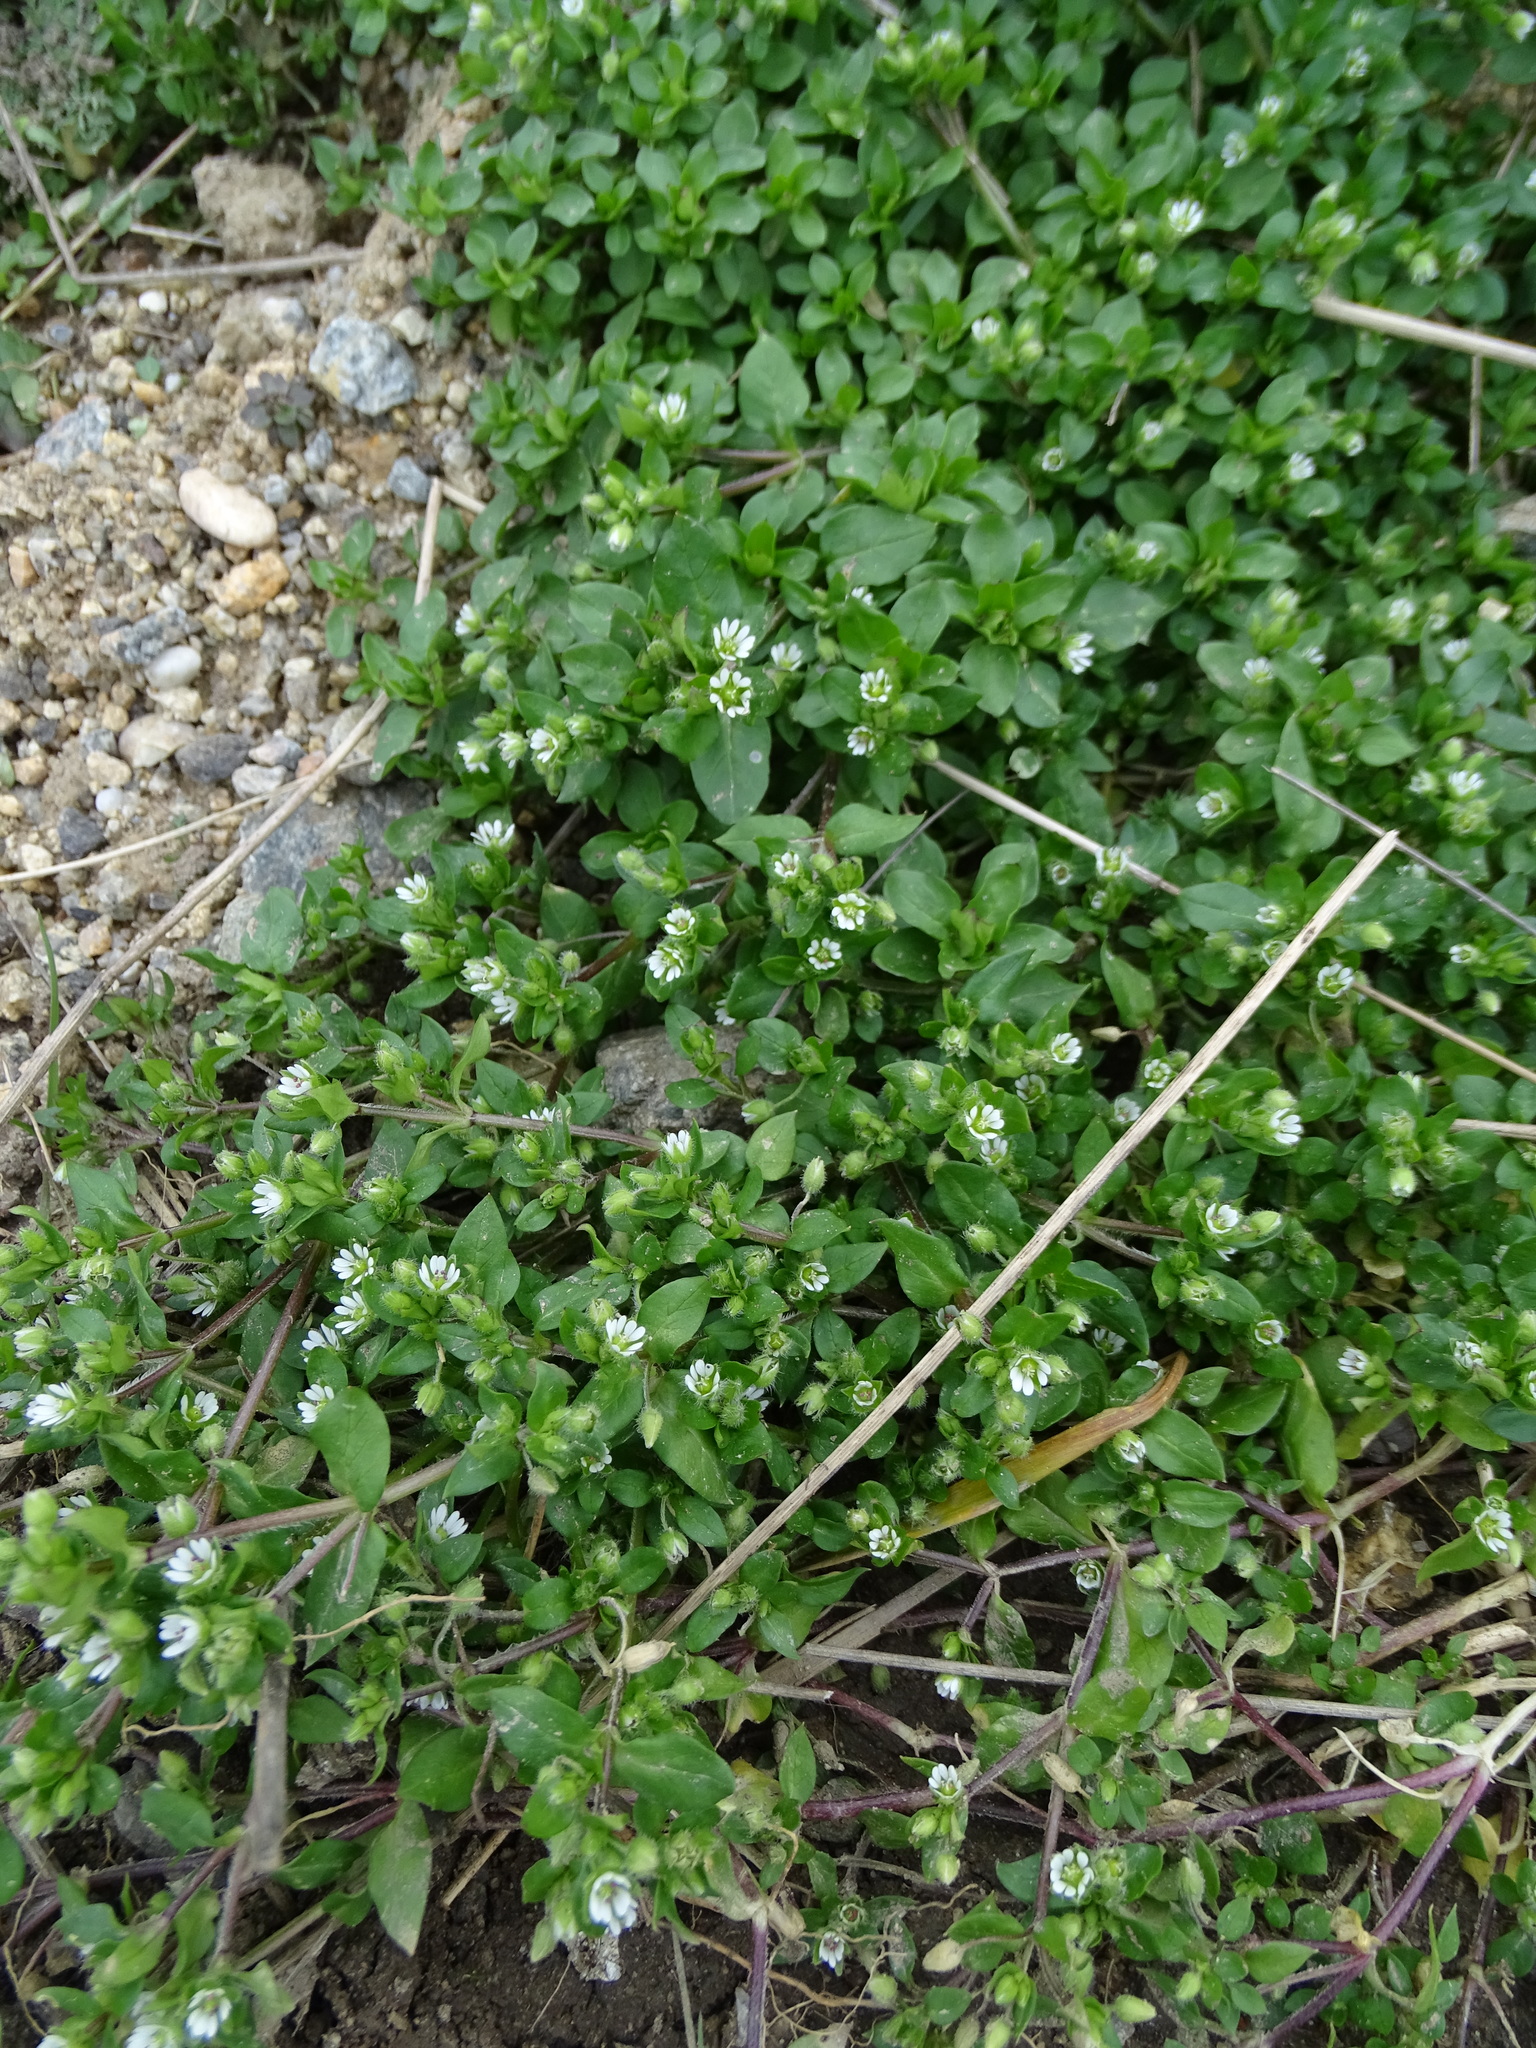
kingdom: Plantae
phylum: Tracheophyta
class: Magnoliopsida
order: Caryophyllales
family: Caryophyllaceae
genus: Stellaria
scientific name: Stellaria media
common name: Common chickweed
